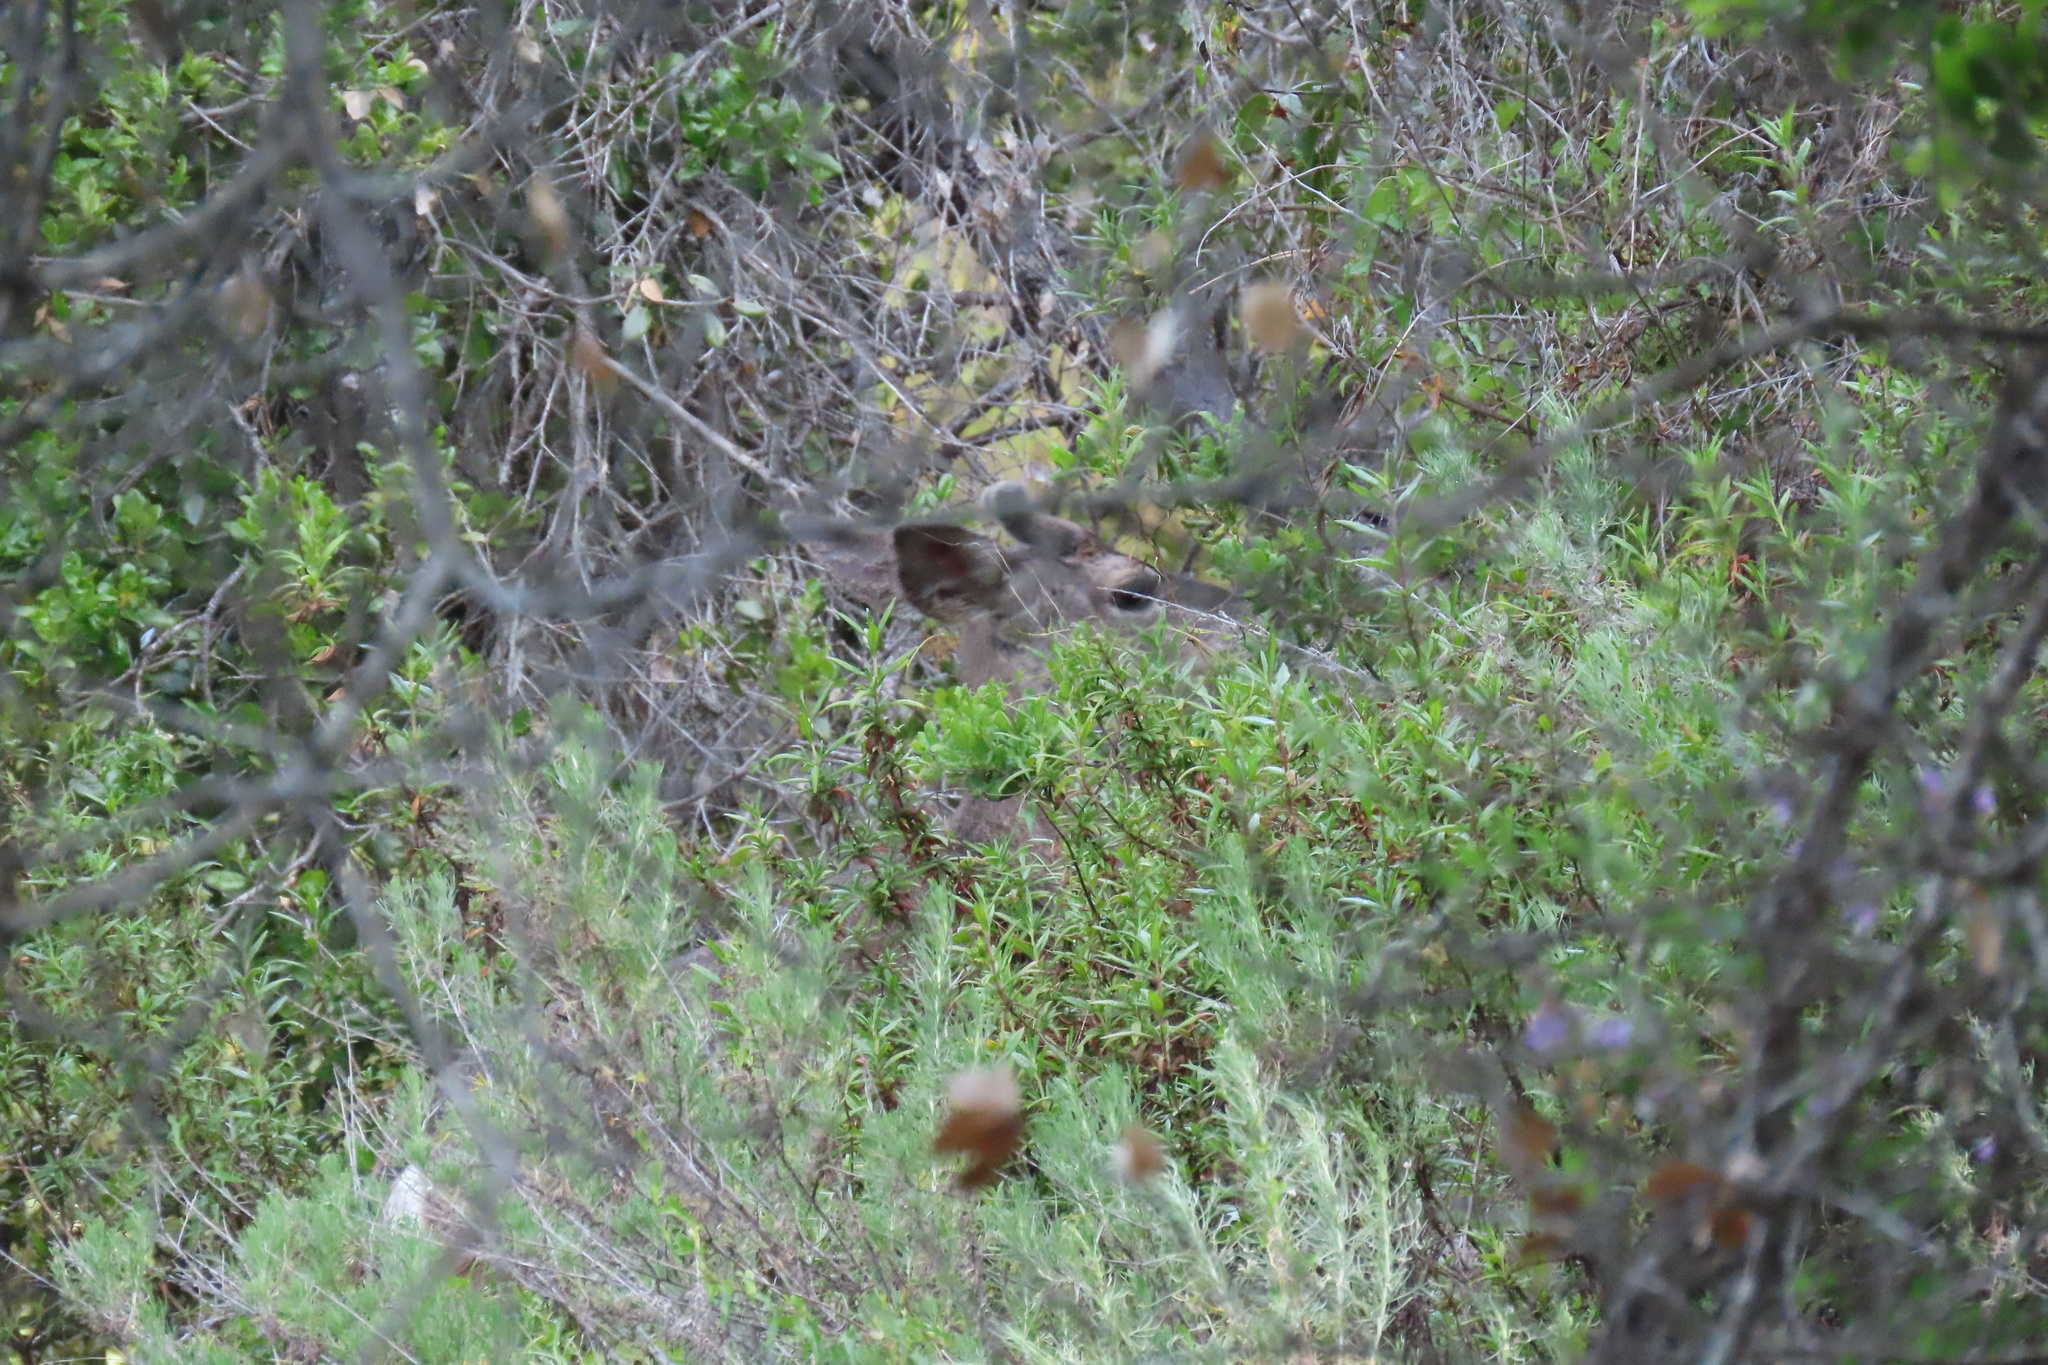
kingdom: Animalia
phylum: Chordata
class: Mammalia
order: Artiodactyla
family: Cervidae
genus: Odocoileus
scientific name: Odocoileus hemionus
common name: Mule deer
